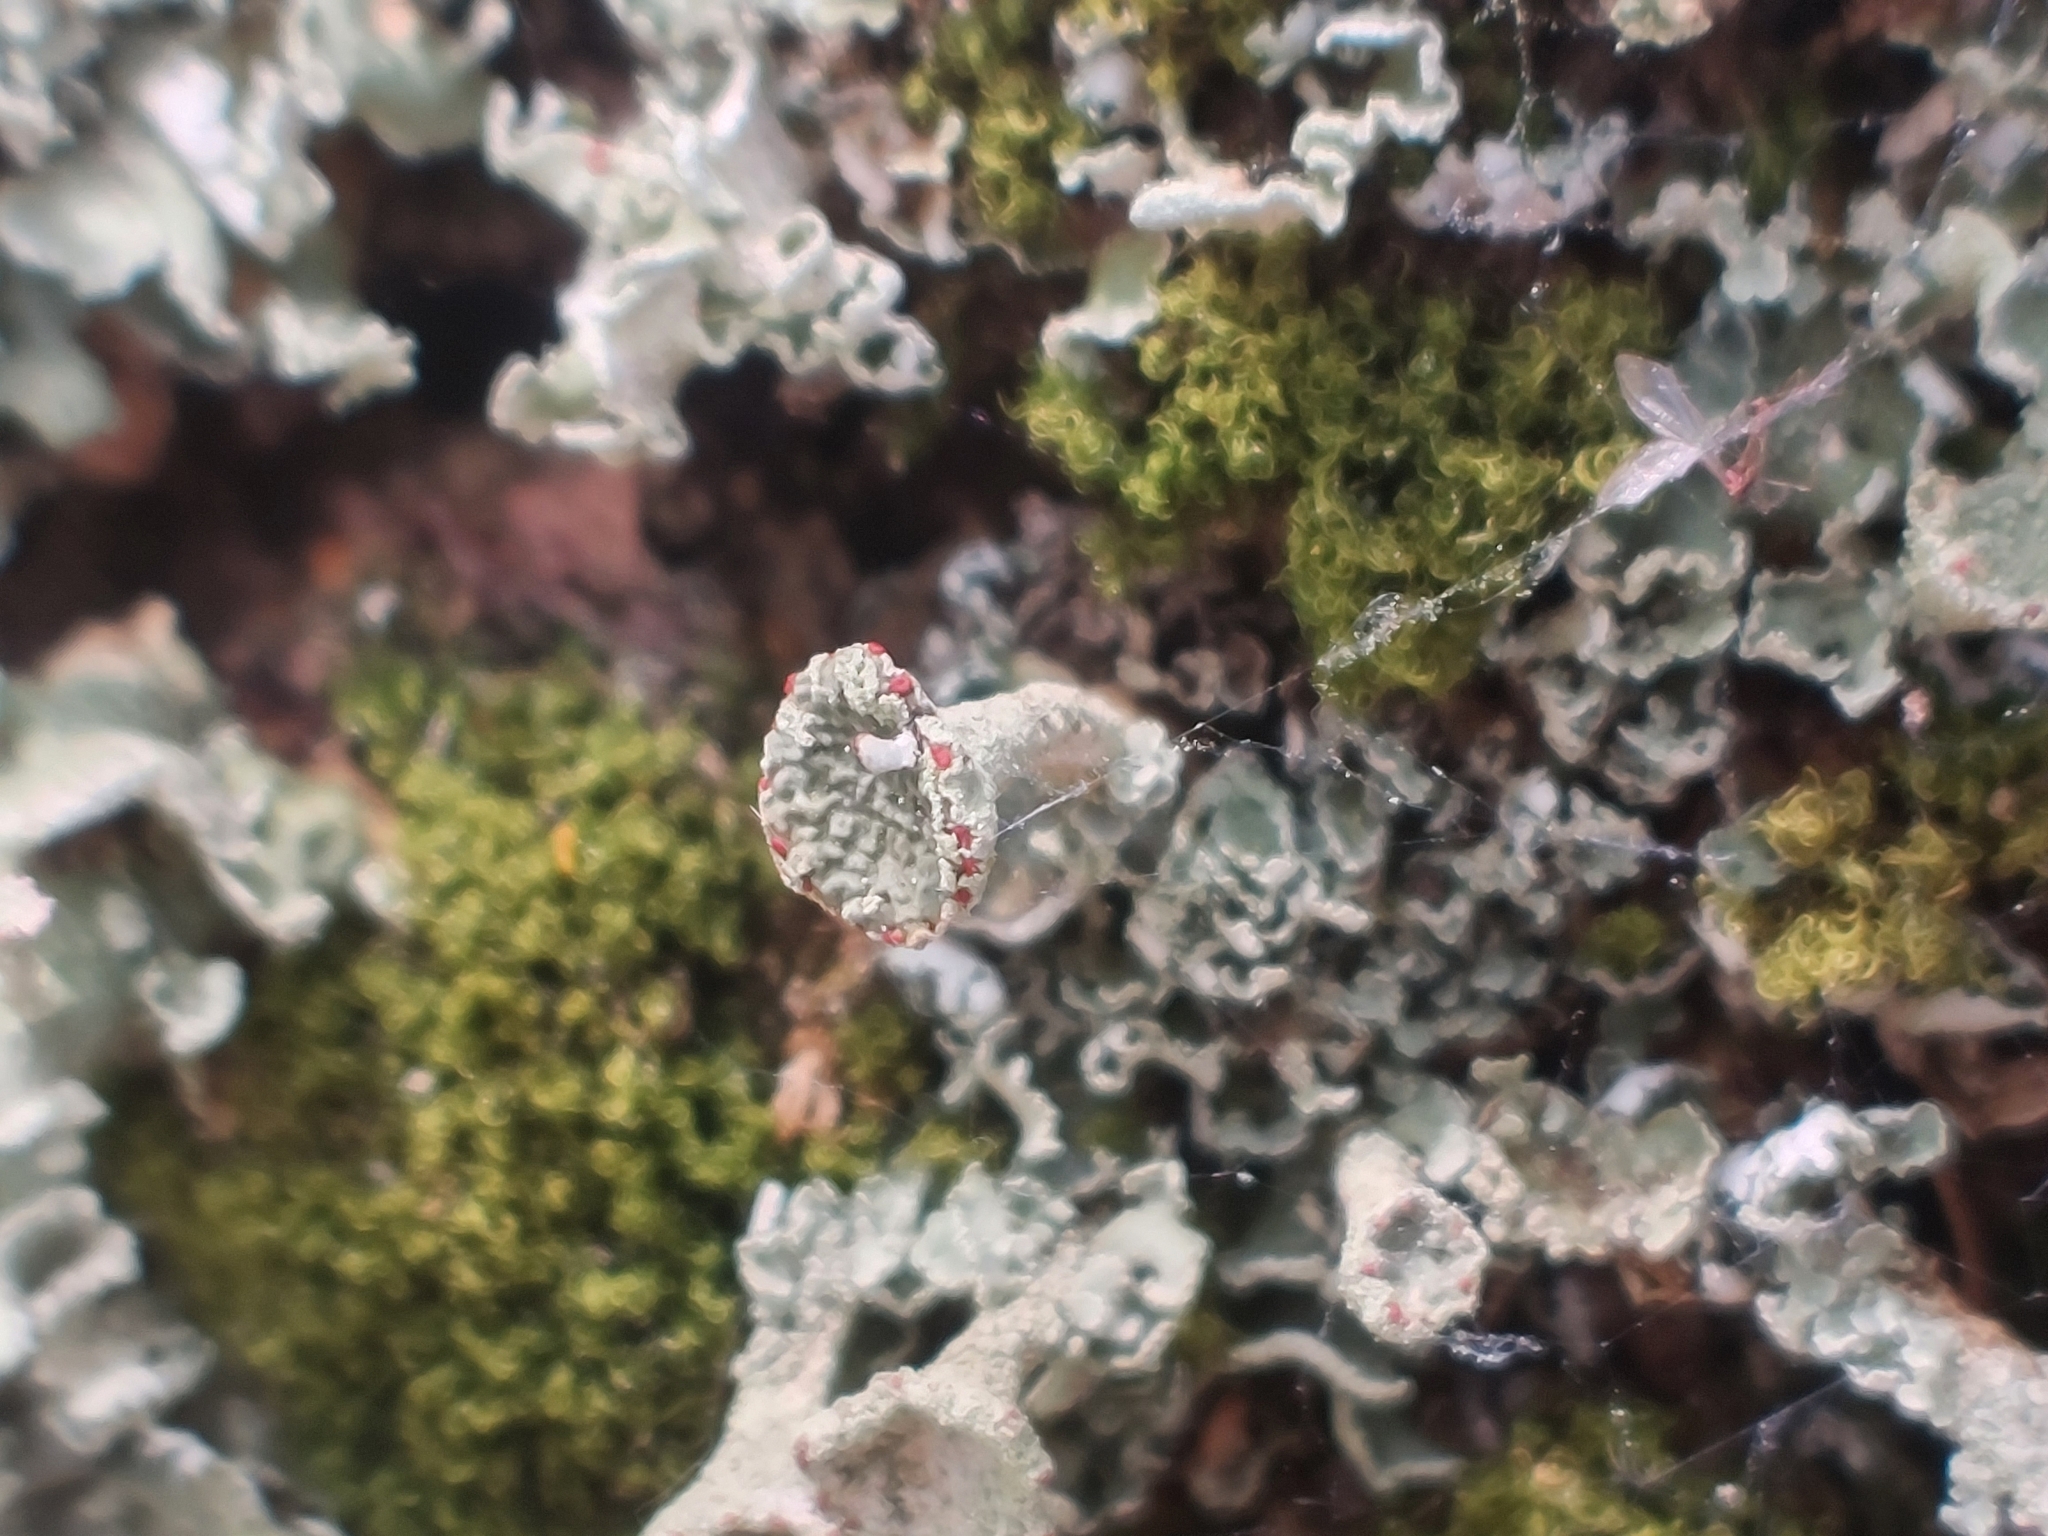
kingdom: Fungi
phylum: Ascomycota
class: Lecanoromycetes
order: Lecanorales
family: Cladoniaceae
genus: Cladonia
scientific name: Cladonia digitata
